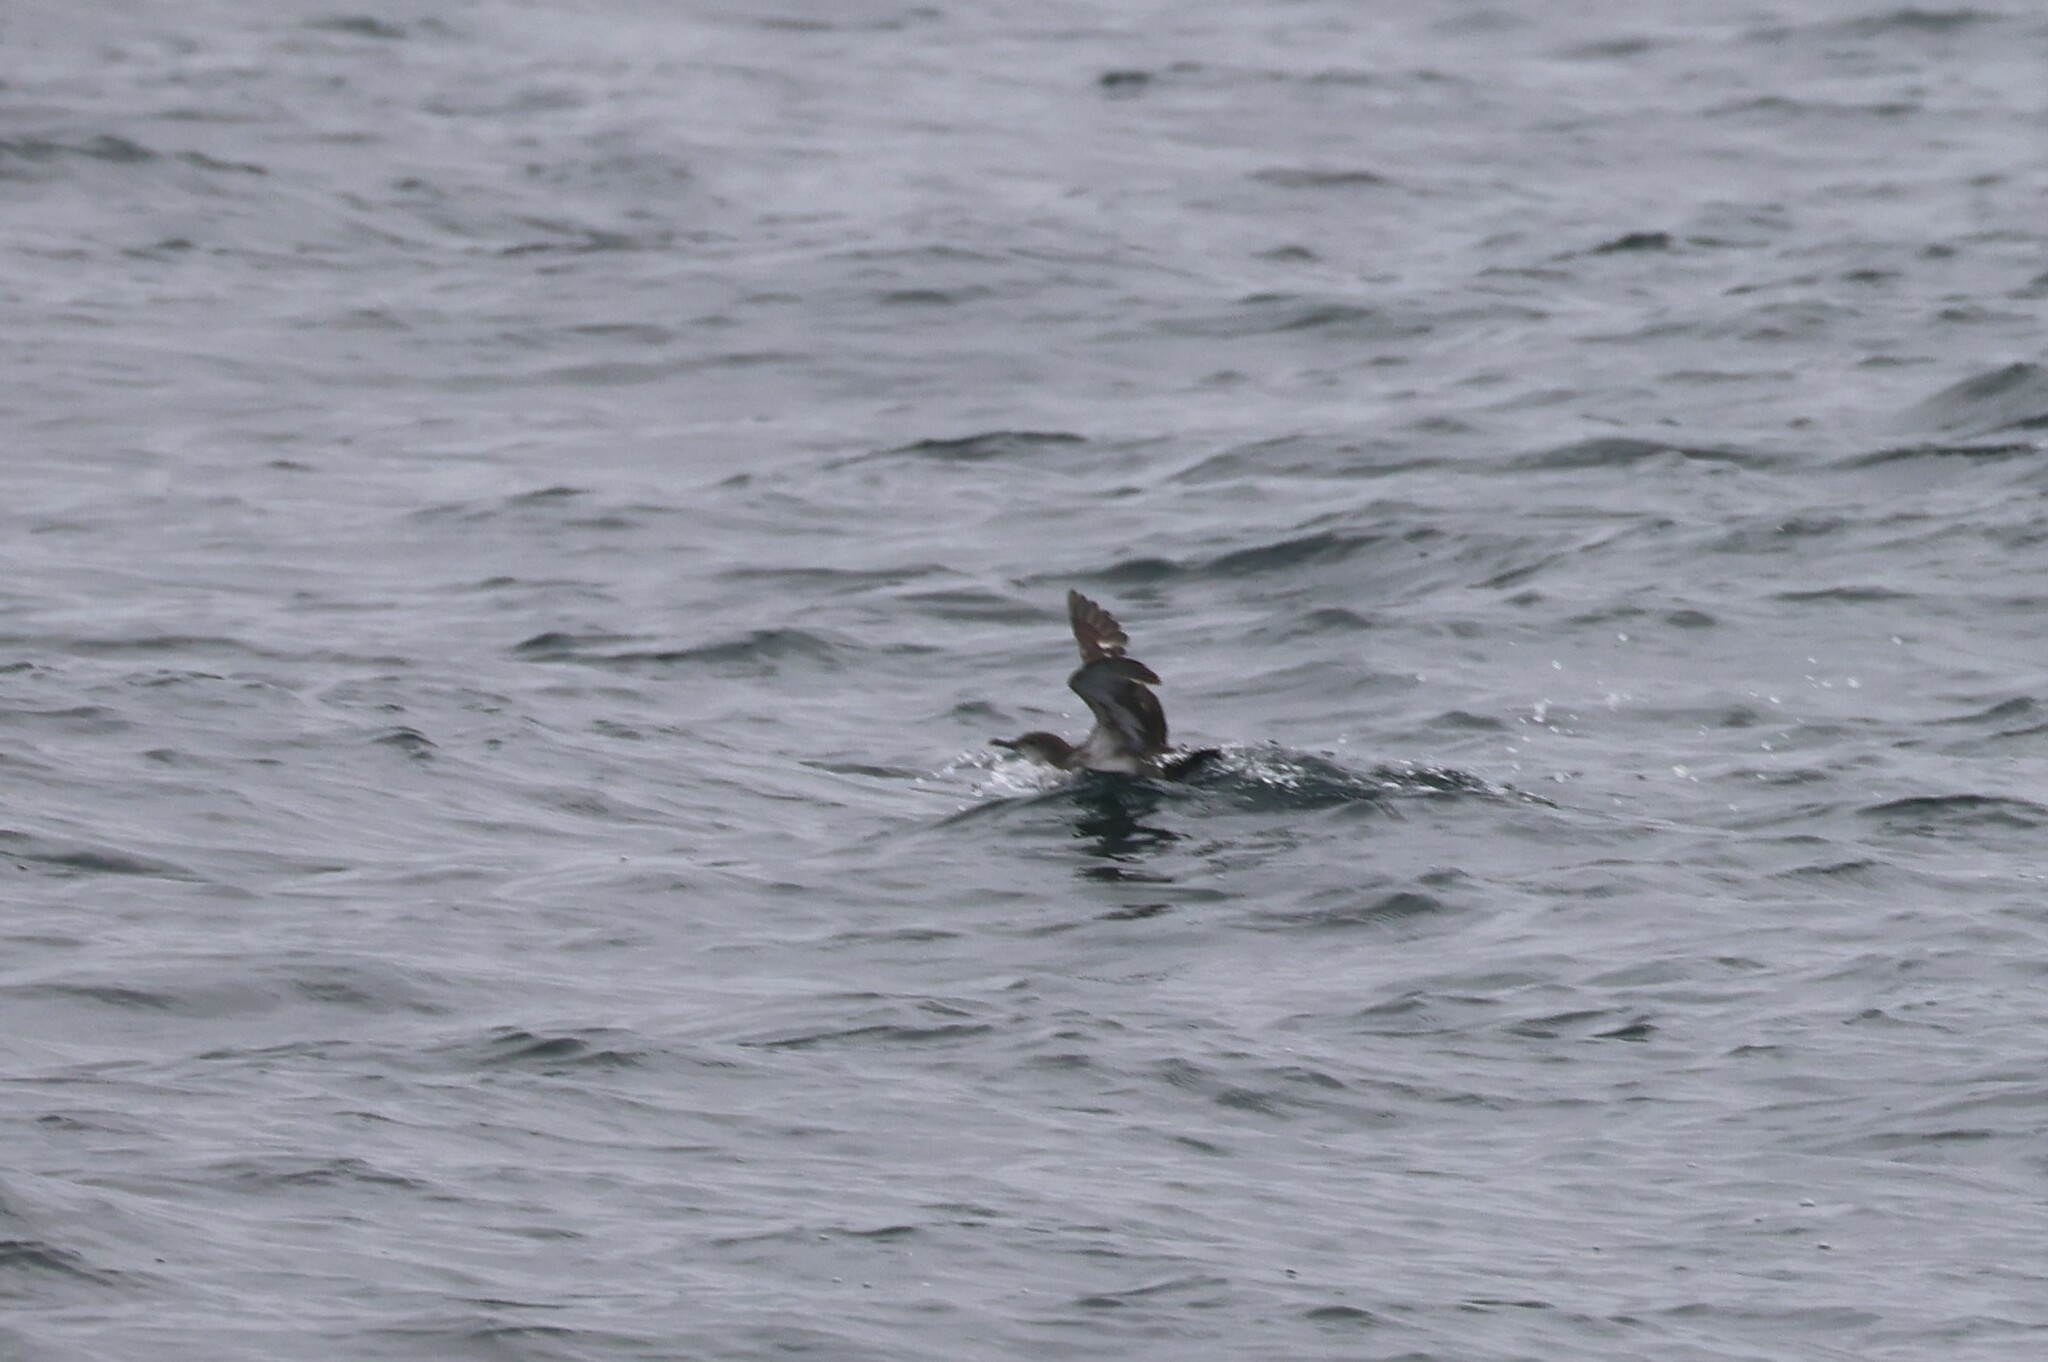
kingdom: Animalia
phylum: Chordata
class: Aves
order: Procellariiformes
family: Procellariidae
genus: Puffinus
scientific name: Puffinus opisthomelas
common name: Black-vented shearwater
